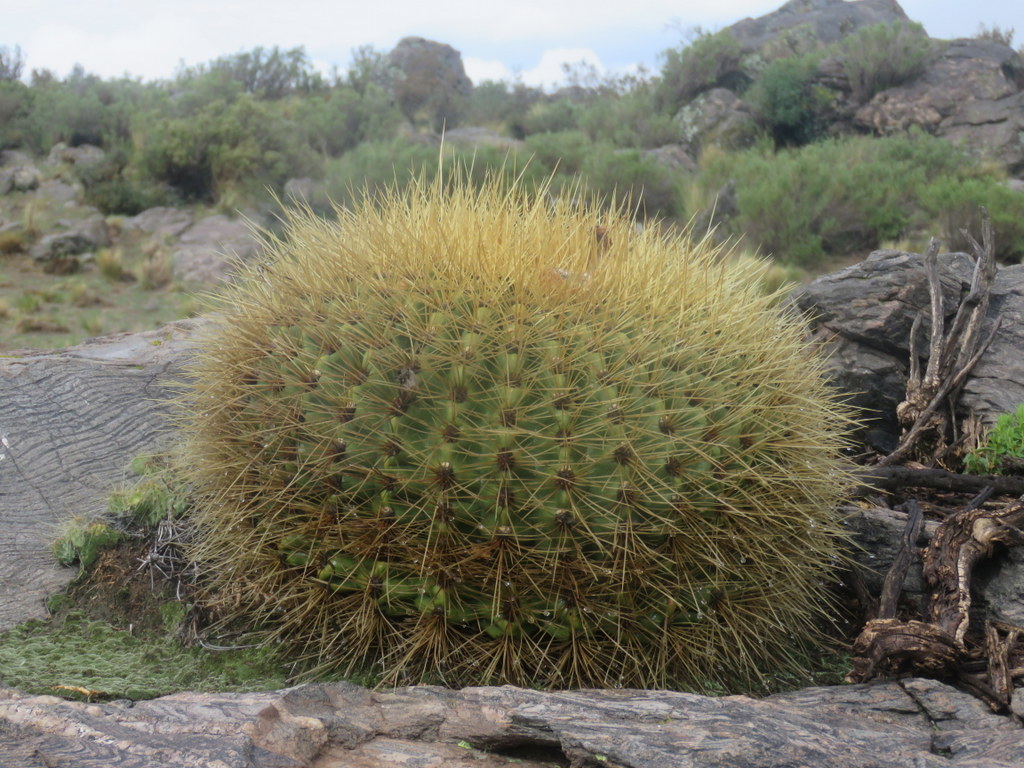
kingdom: Plantae
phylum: Tracheophyta
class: Magnoliopsida
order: Caryophyllales
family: Cactaceae
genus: Soehrensia
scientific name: Soehrensia formosa
